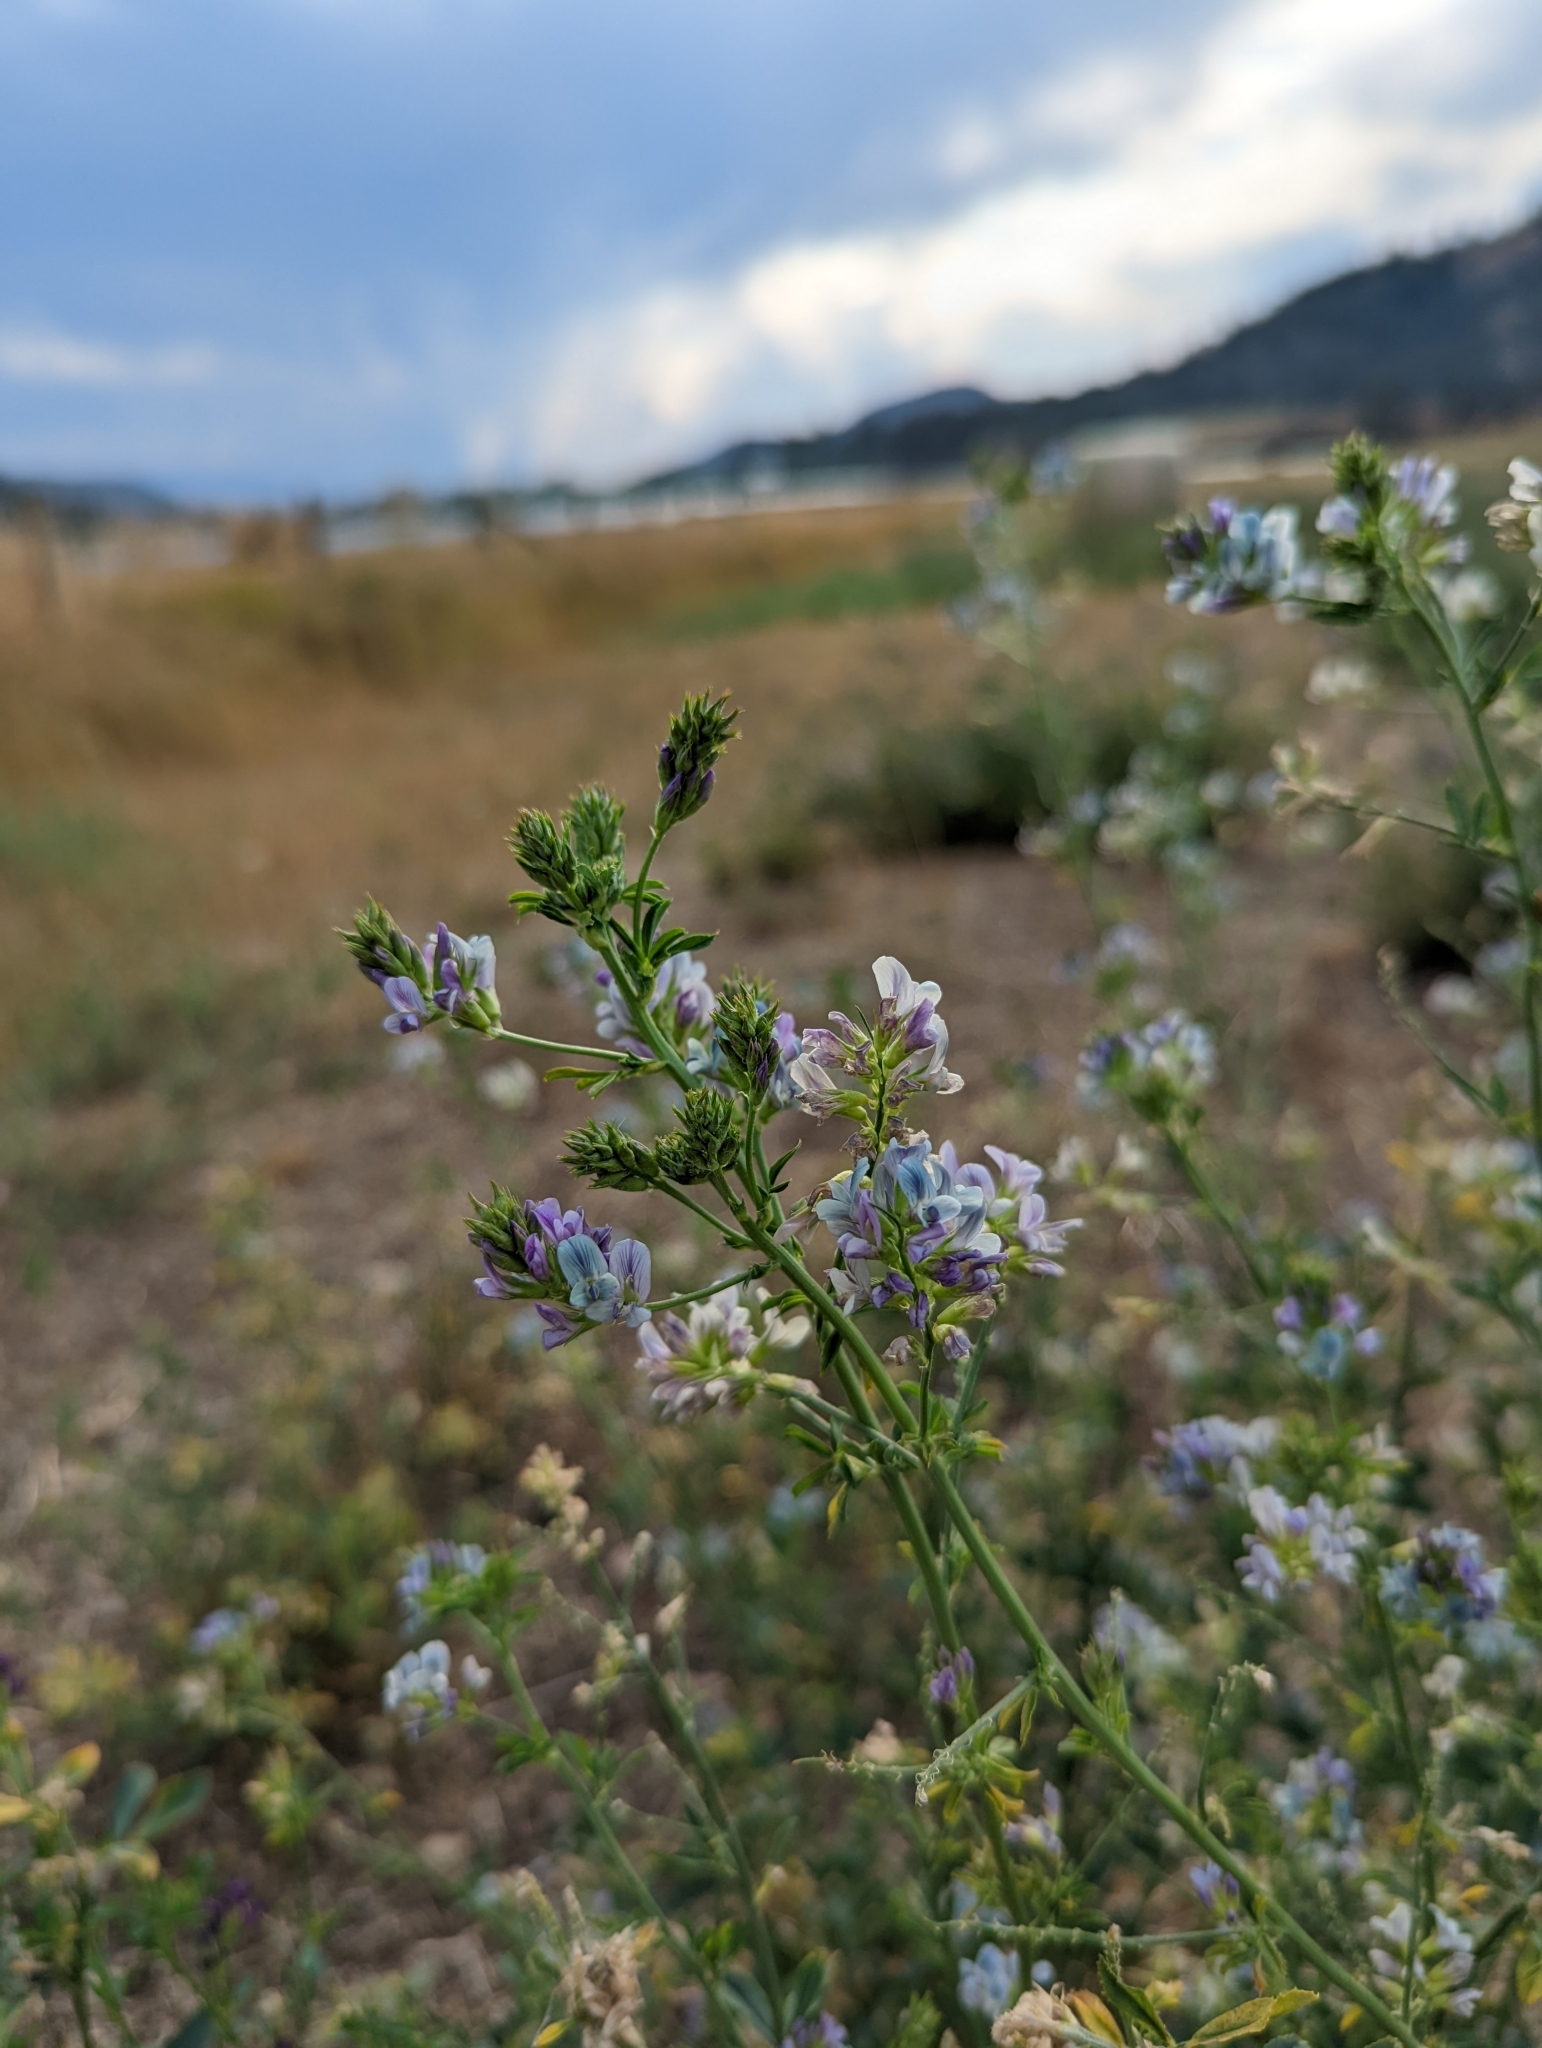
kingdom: Plantae
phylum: Tracheophyta
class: Magnoliopsida
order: Fabales
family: Fabaceae
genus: Medicago
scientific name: Medicago sativa
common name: Alfalfa
